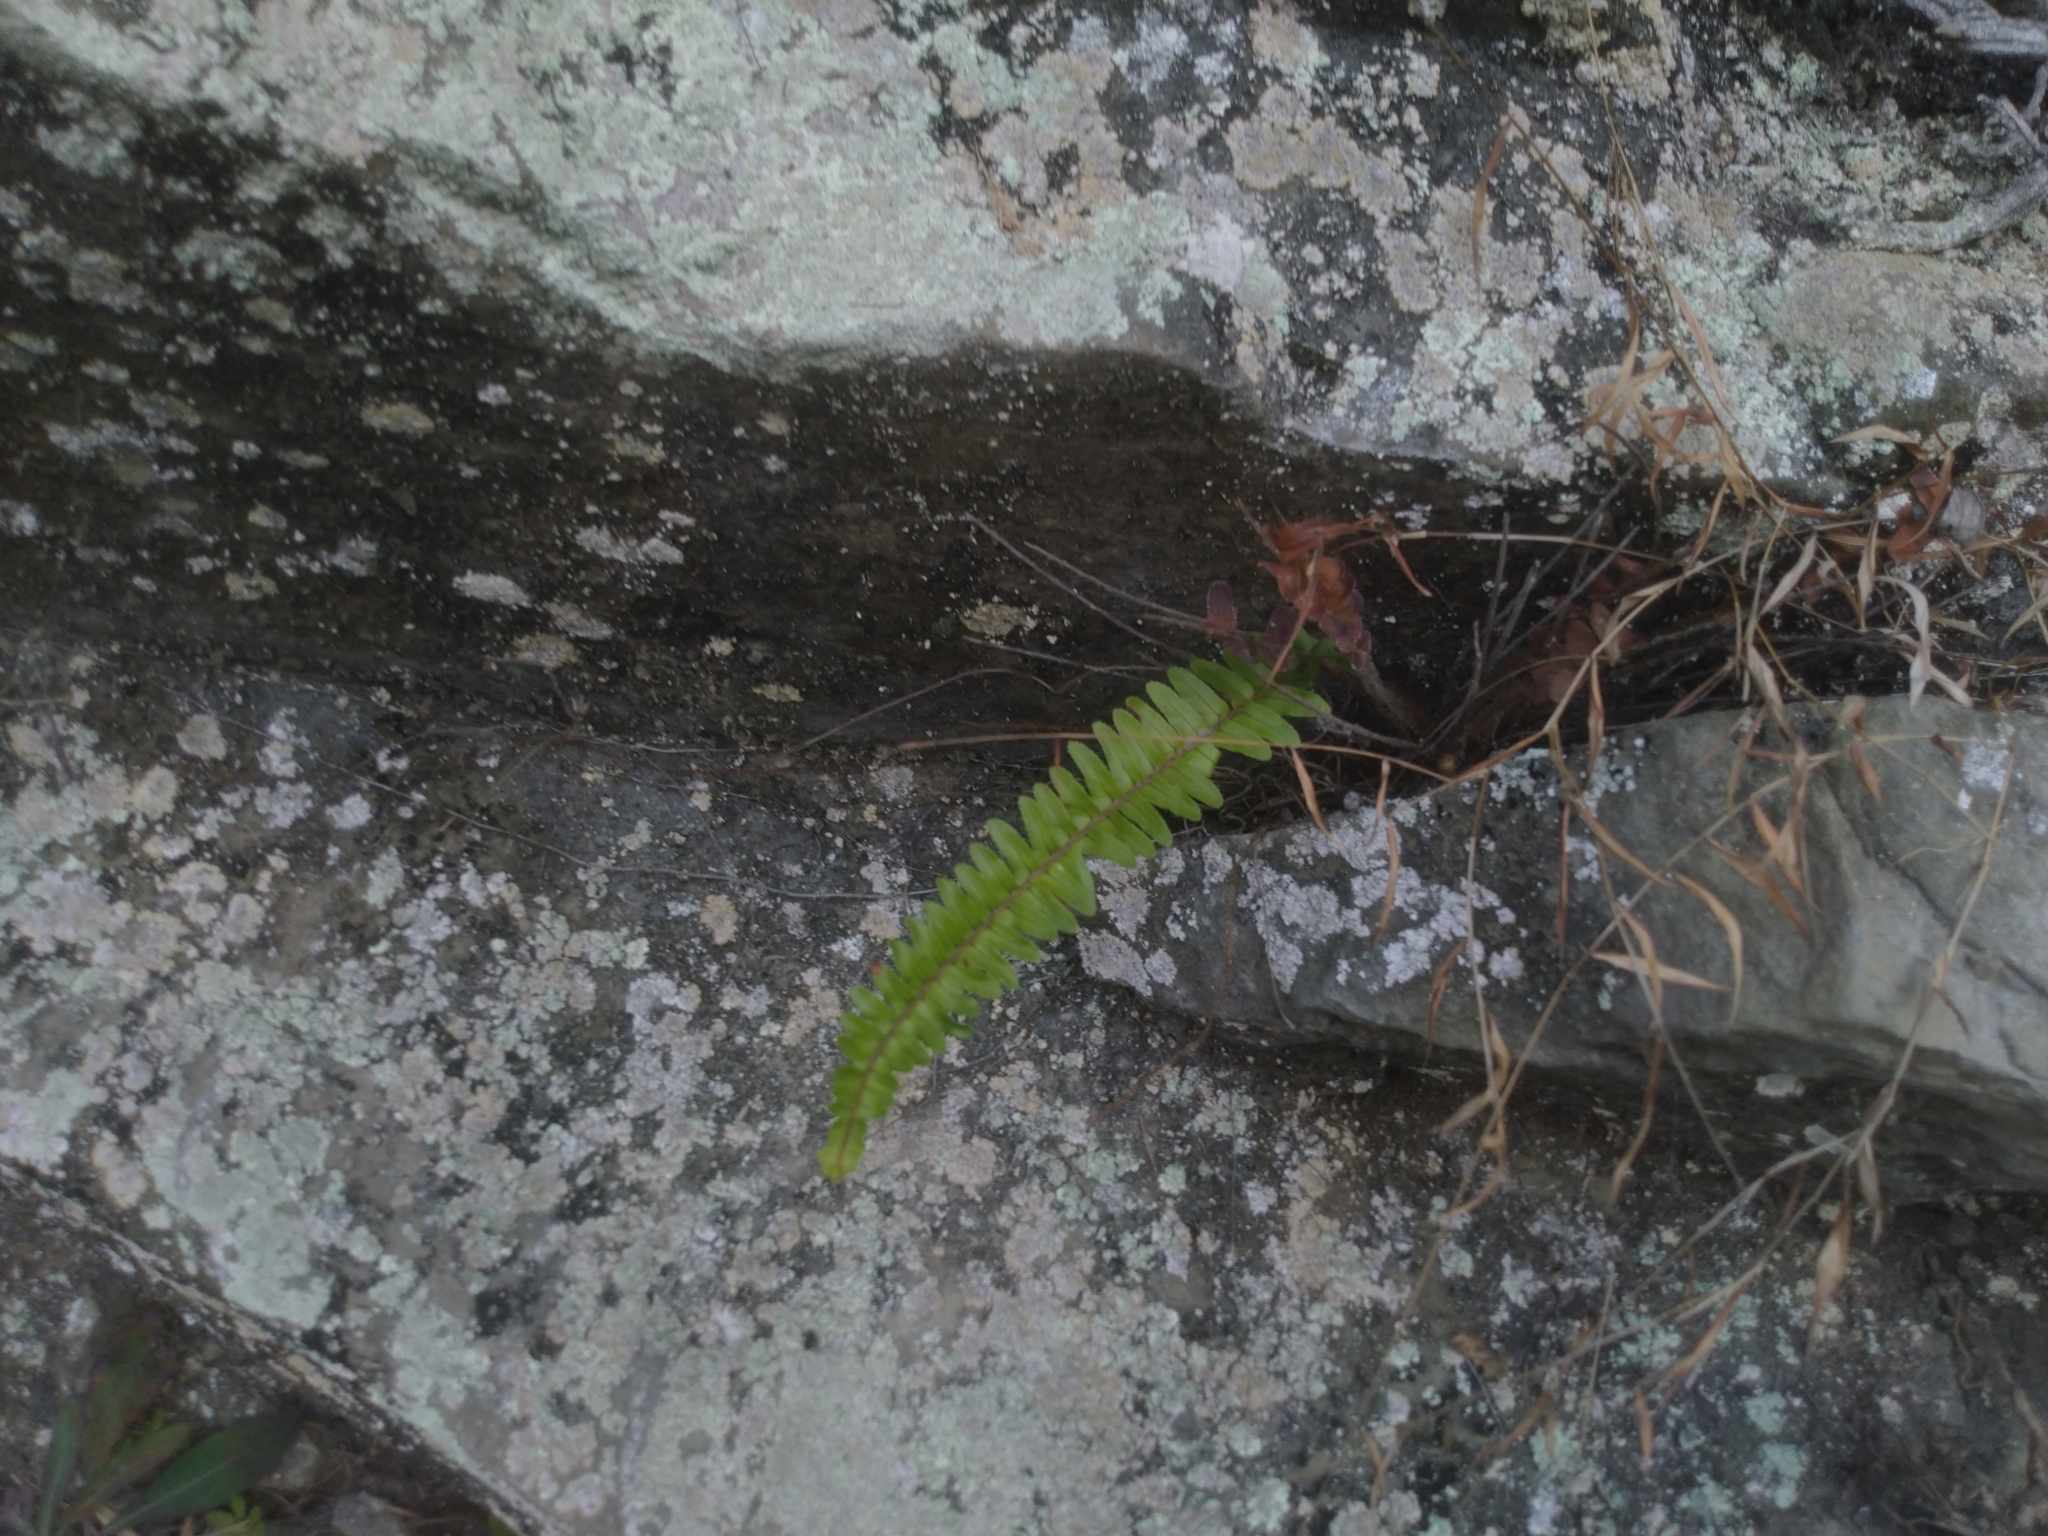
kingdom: Plantae
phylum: Tracheophyta
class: Polypodiopsida
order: Polypodiales
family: Nephrolepidaceae
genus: Nephrolepis
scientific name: Nephrolepis cordifolia
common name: Narrow swordfern
